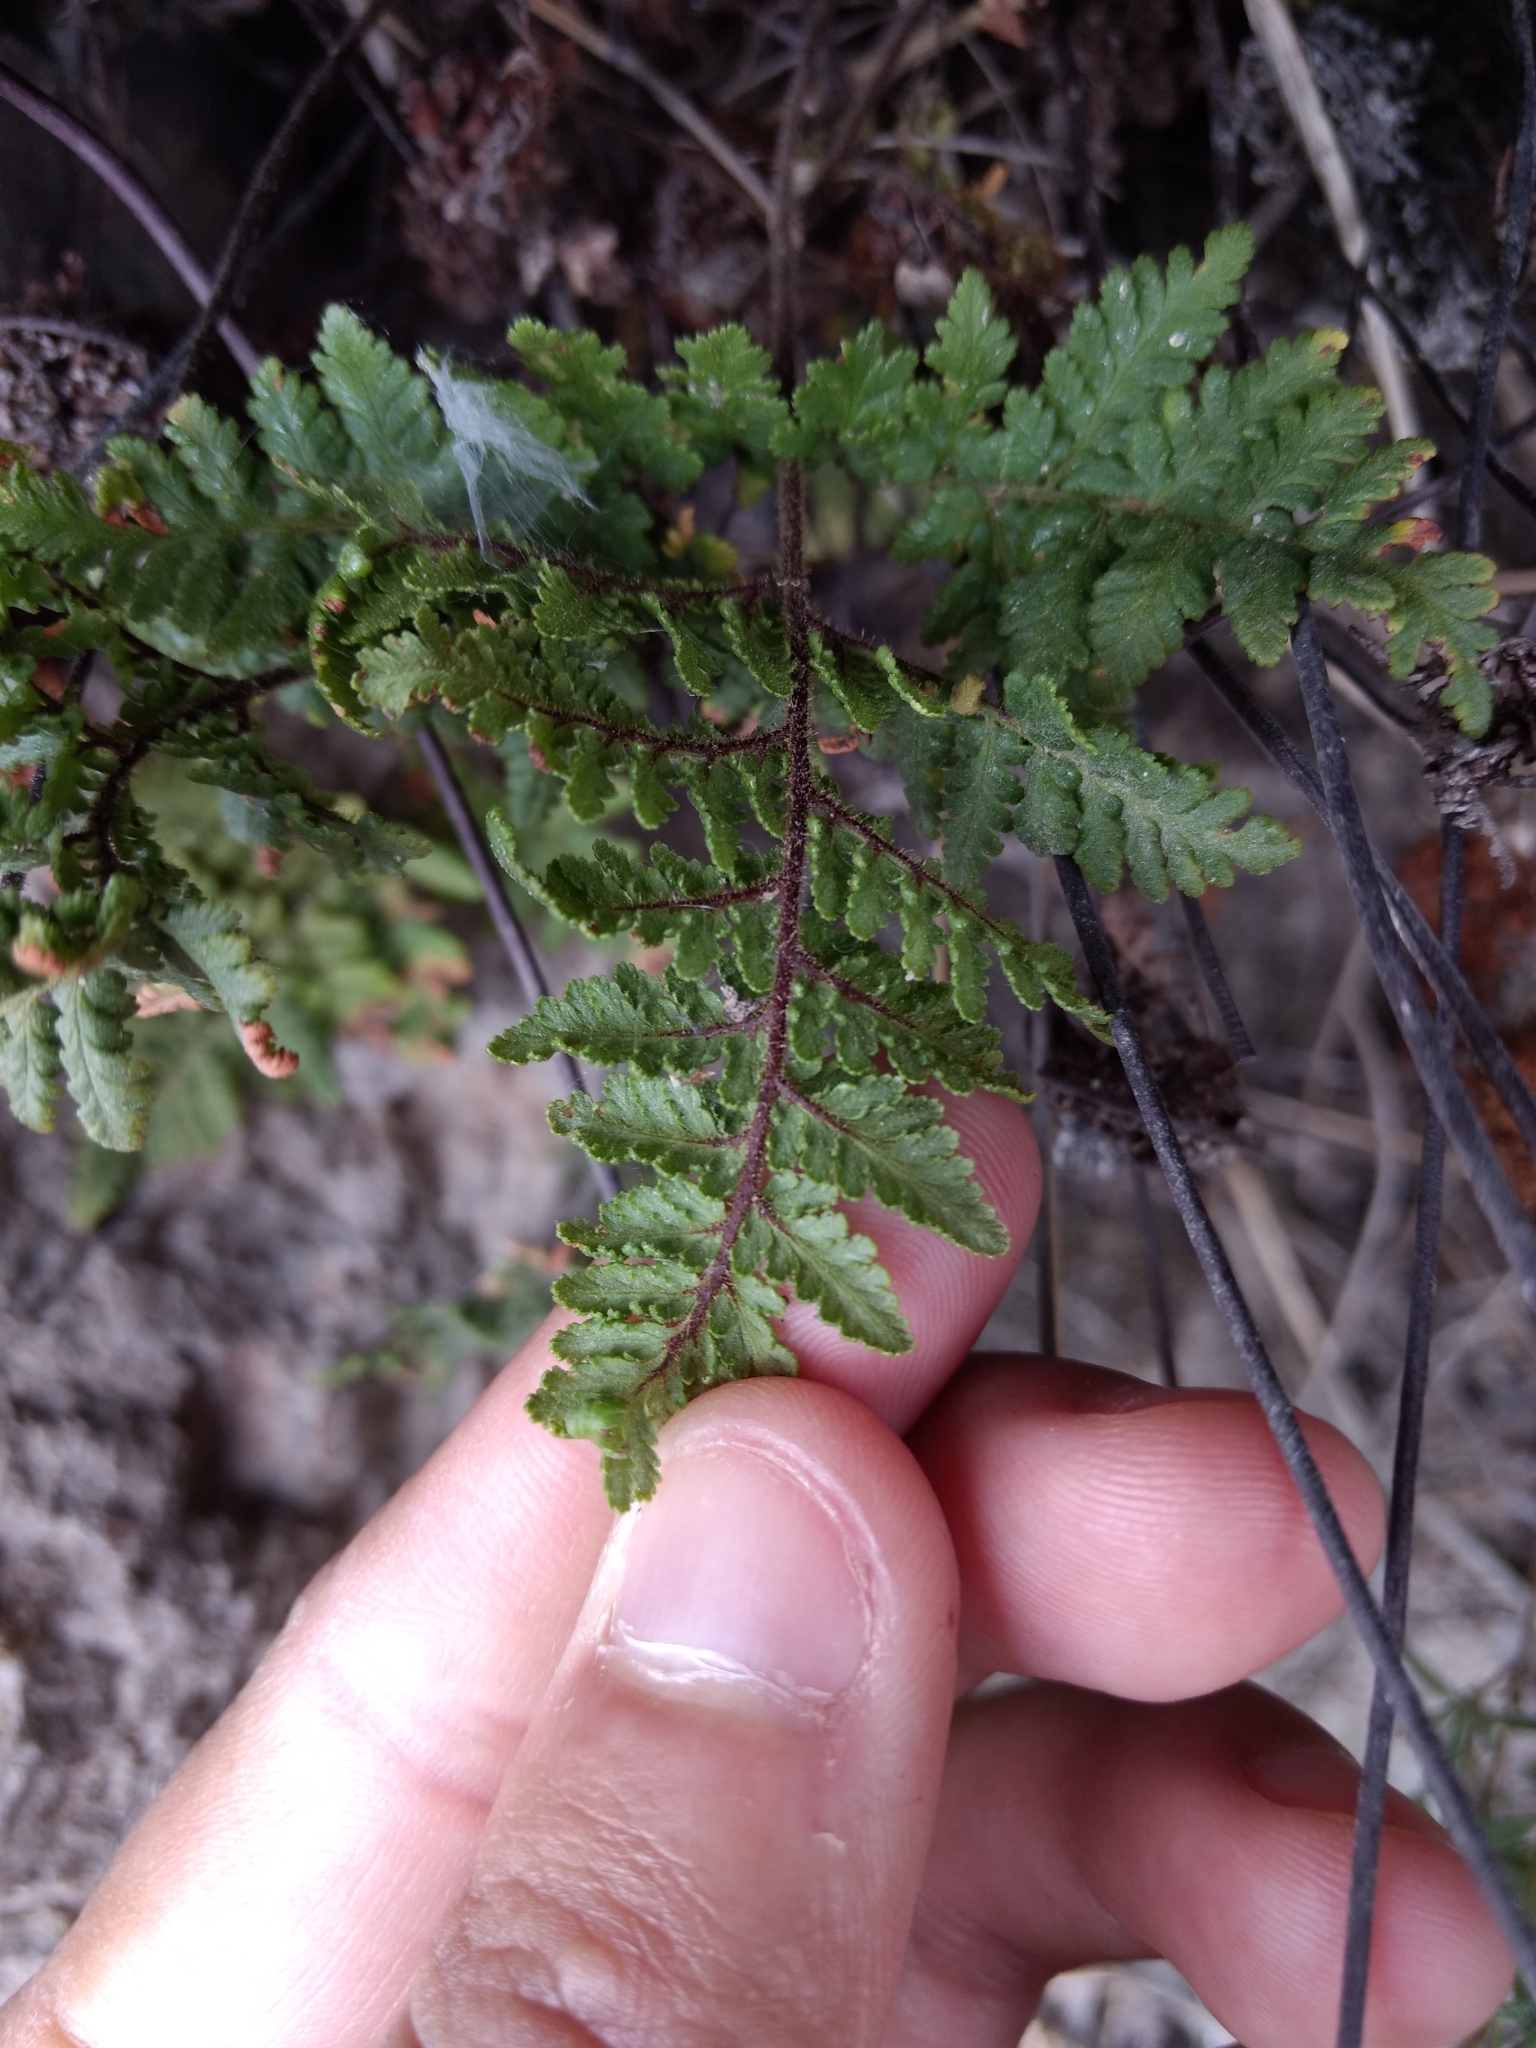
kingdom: Plantae
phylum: Tracheophyta
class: Polypodiopsida
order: Polypodiales
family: Pteridaceae
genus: Gaga
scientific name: Gaga kaulfussii
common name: Glandular lip fern
